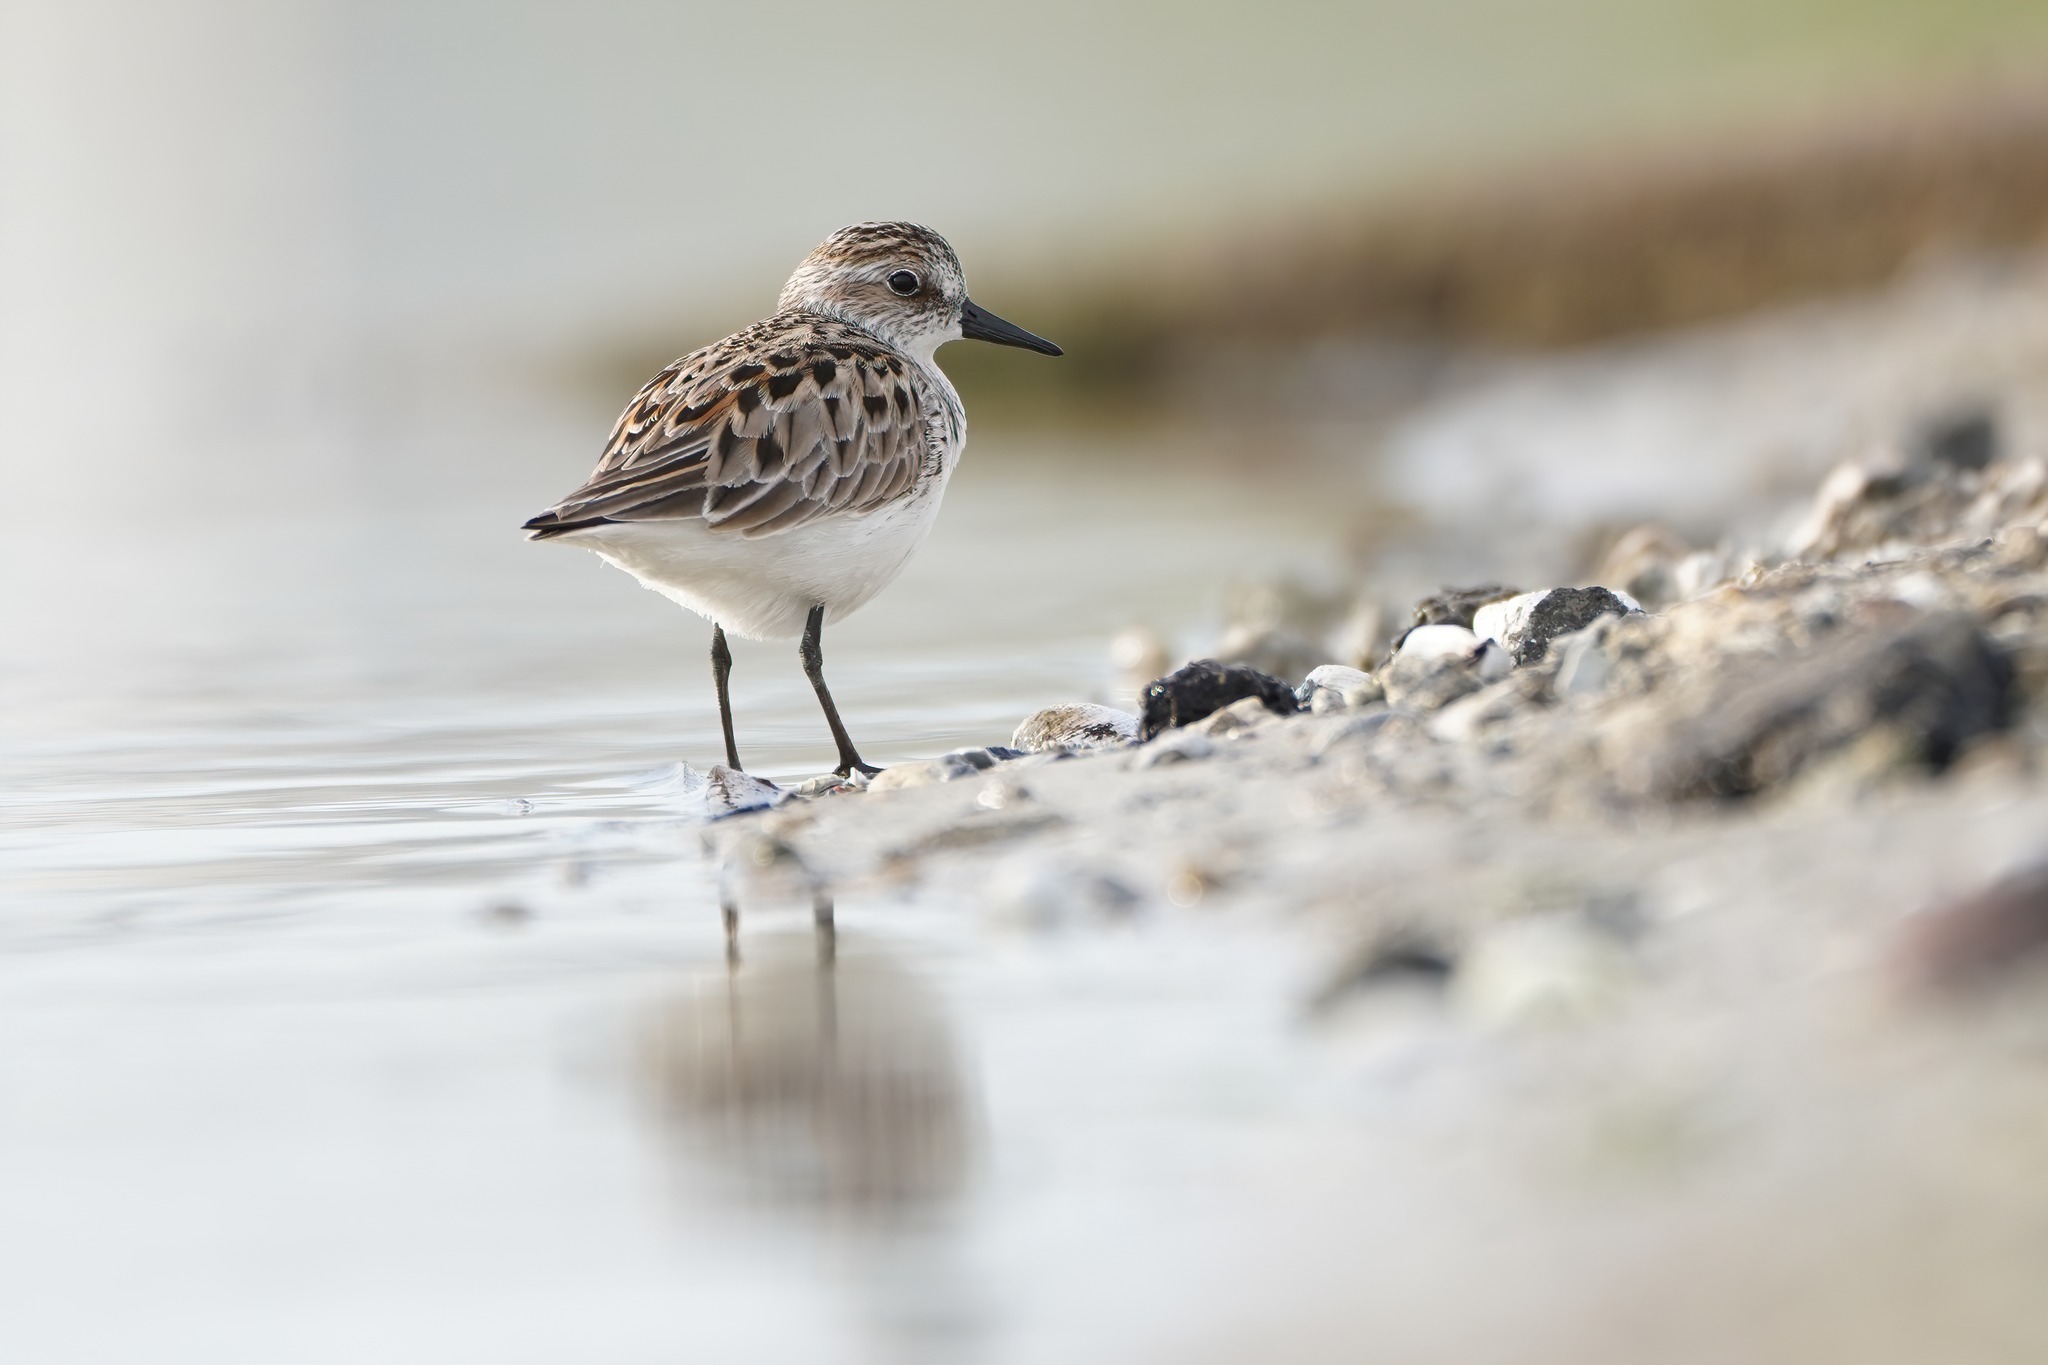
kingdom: Animalia
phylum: Chordata
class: Aves
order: Charadriiformes
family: Scolopacidae
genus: Calidris
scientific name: Calidris pusilla
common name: Semipalmated sandpiper
